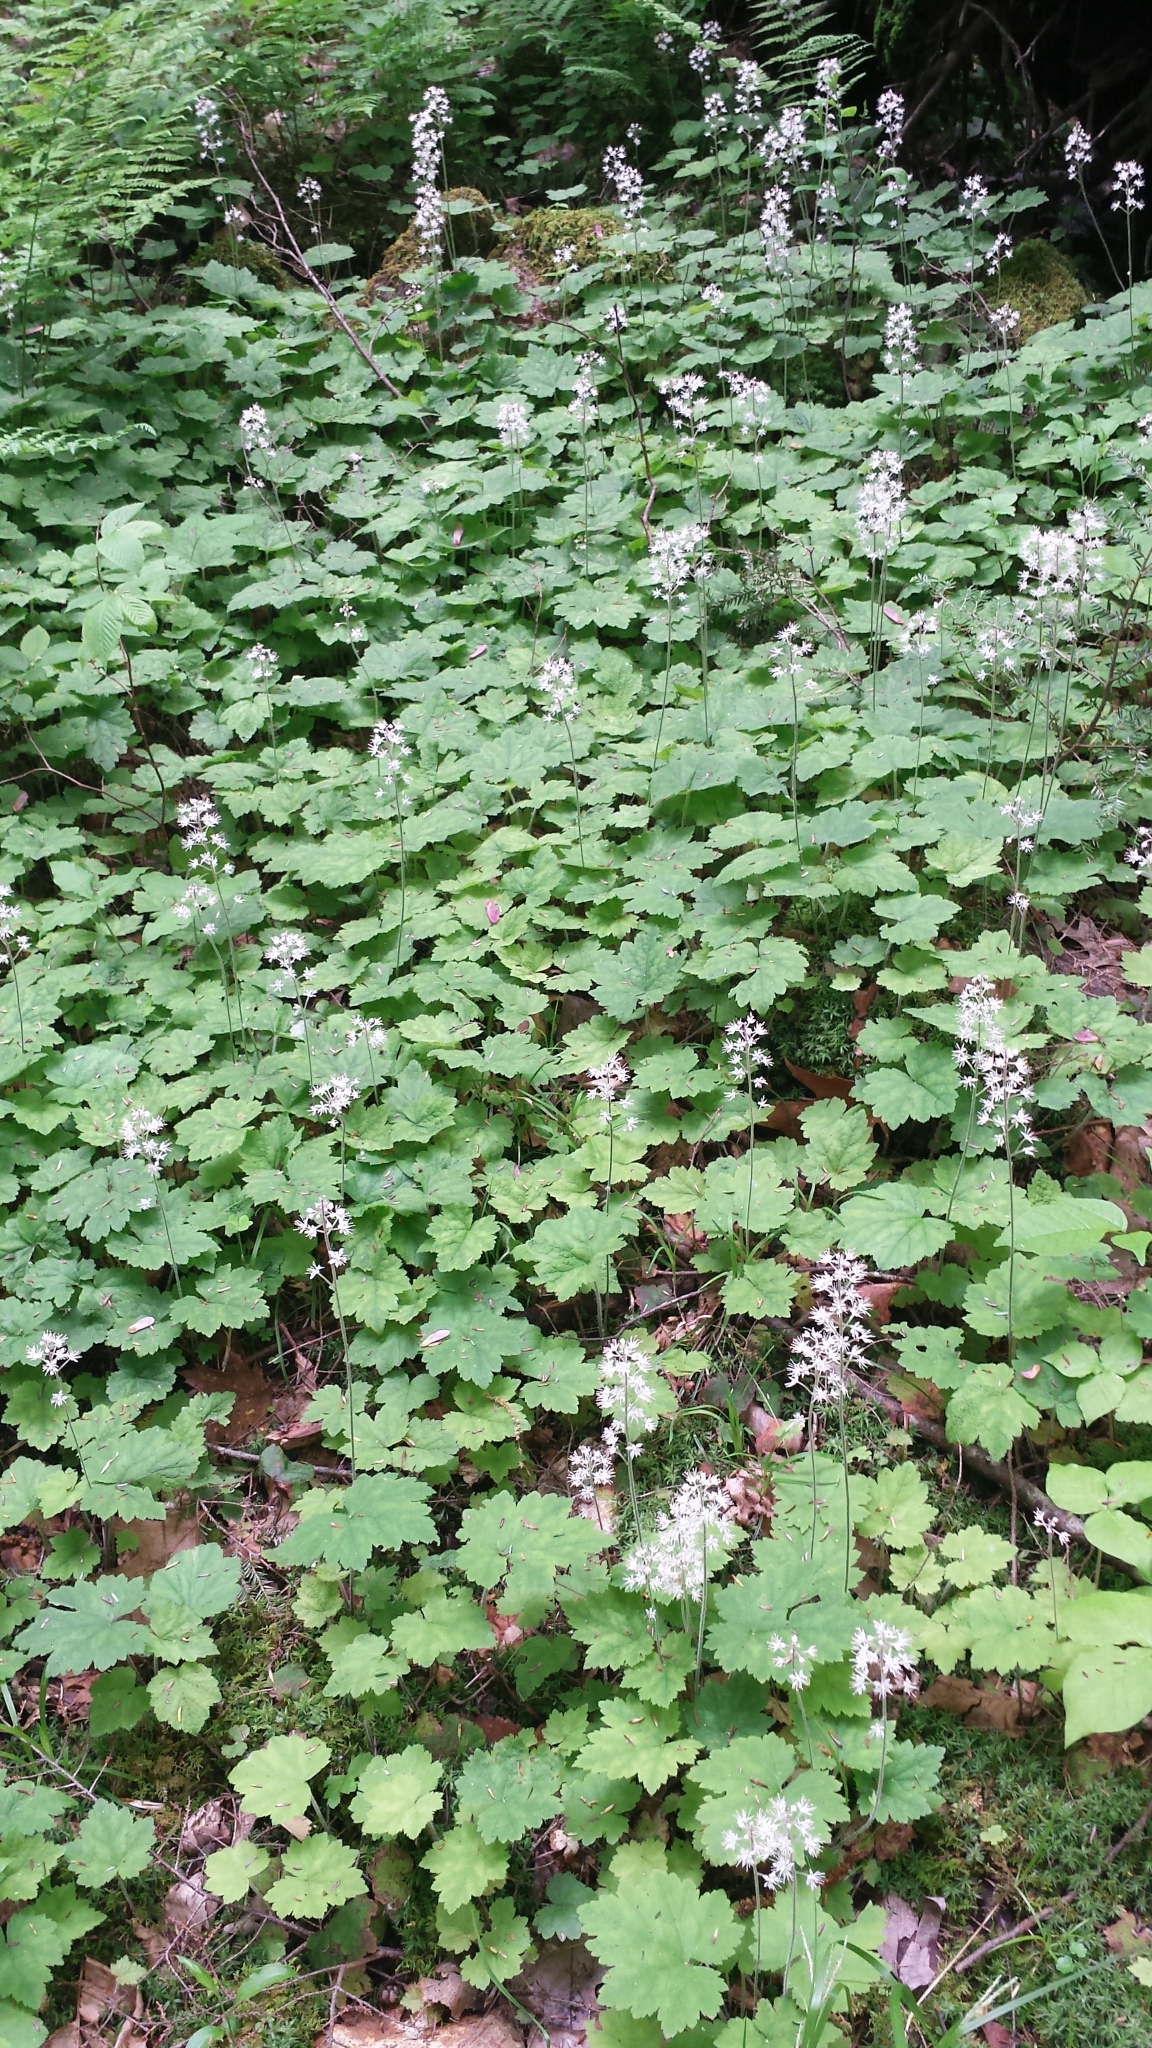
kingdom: Plantae
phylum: Tracheophyta
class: Magnoliopsida
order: Saxifragales
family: Saxifragaceae
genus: Tiarella
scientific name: Tiarella stolonifera
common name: Stoloniferous foamflower
